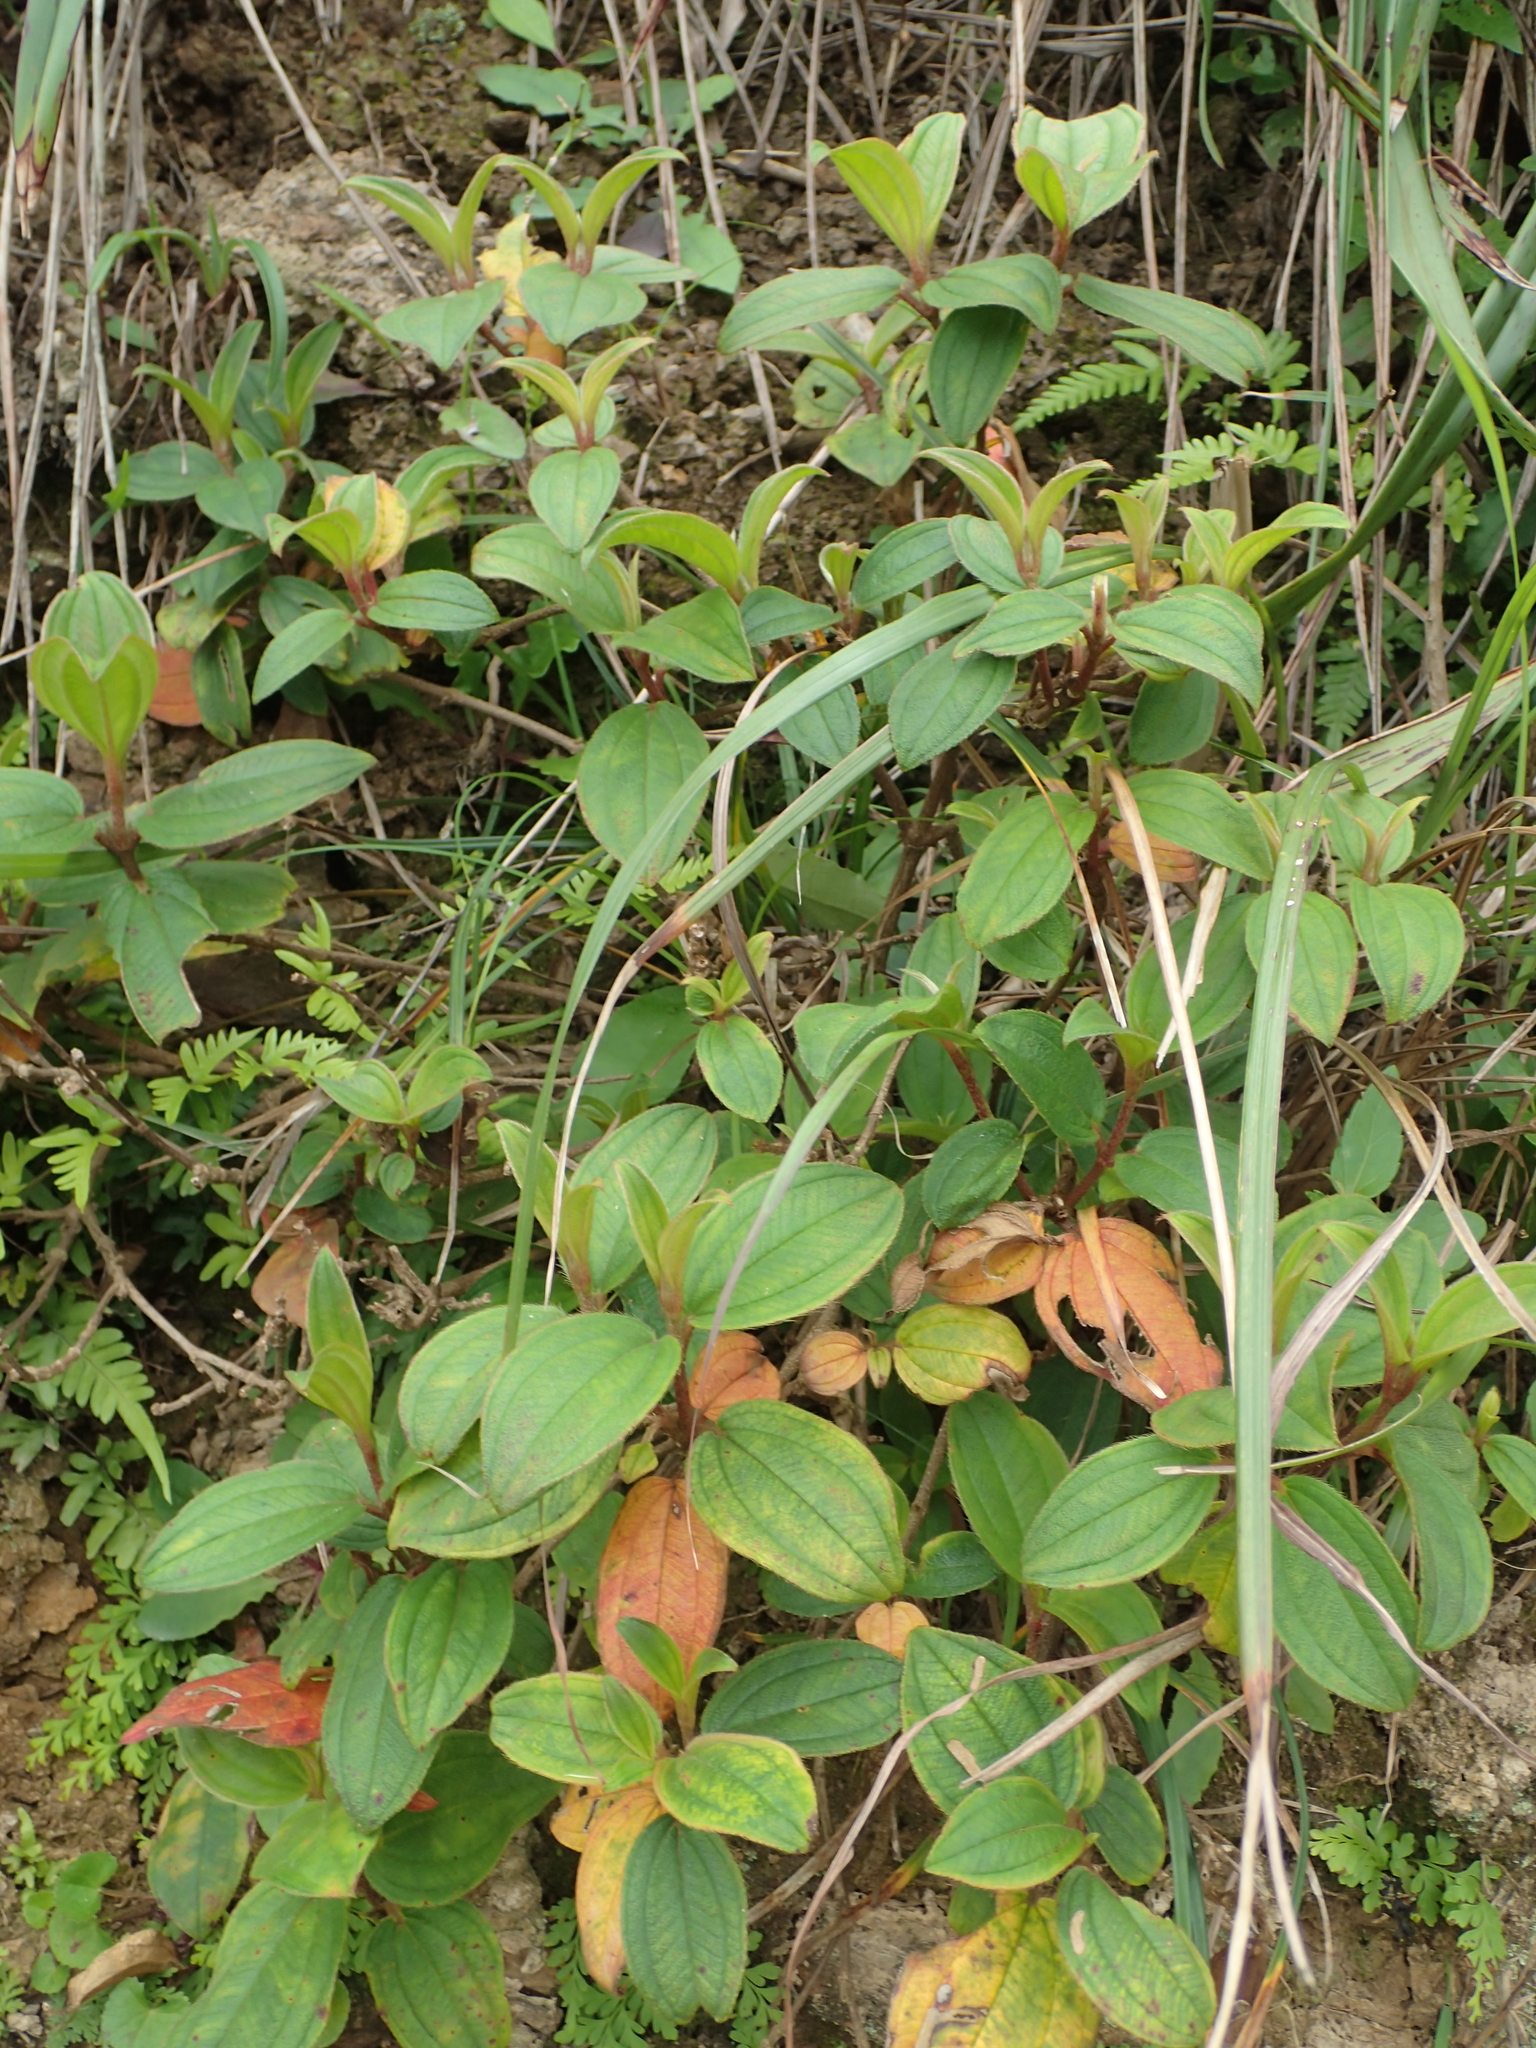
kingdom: Plantae
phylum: Tracheophyta
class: Magnoliopsida
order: Myrtales
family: Melastomataceae
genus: Melastoma
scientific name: Melastoma malabathricum
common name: Indian-rhododendron
